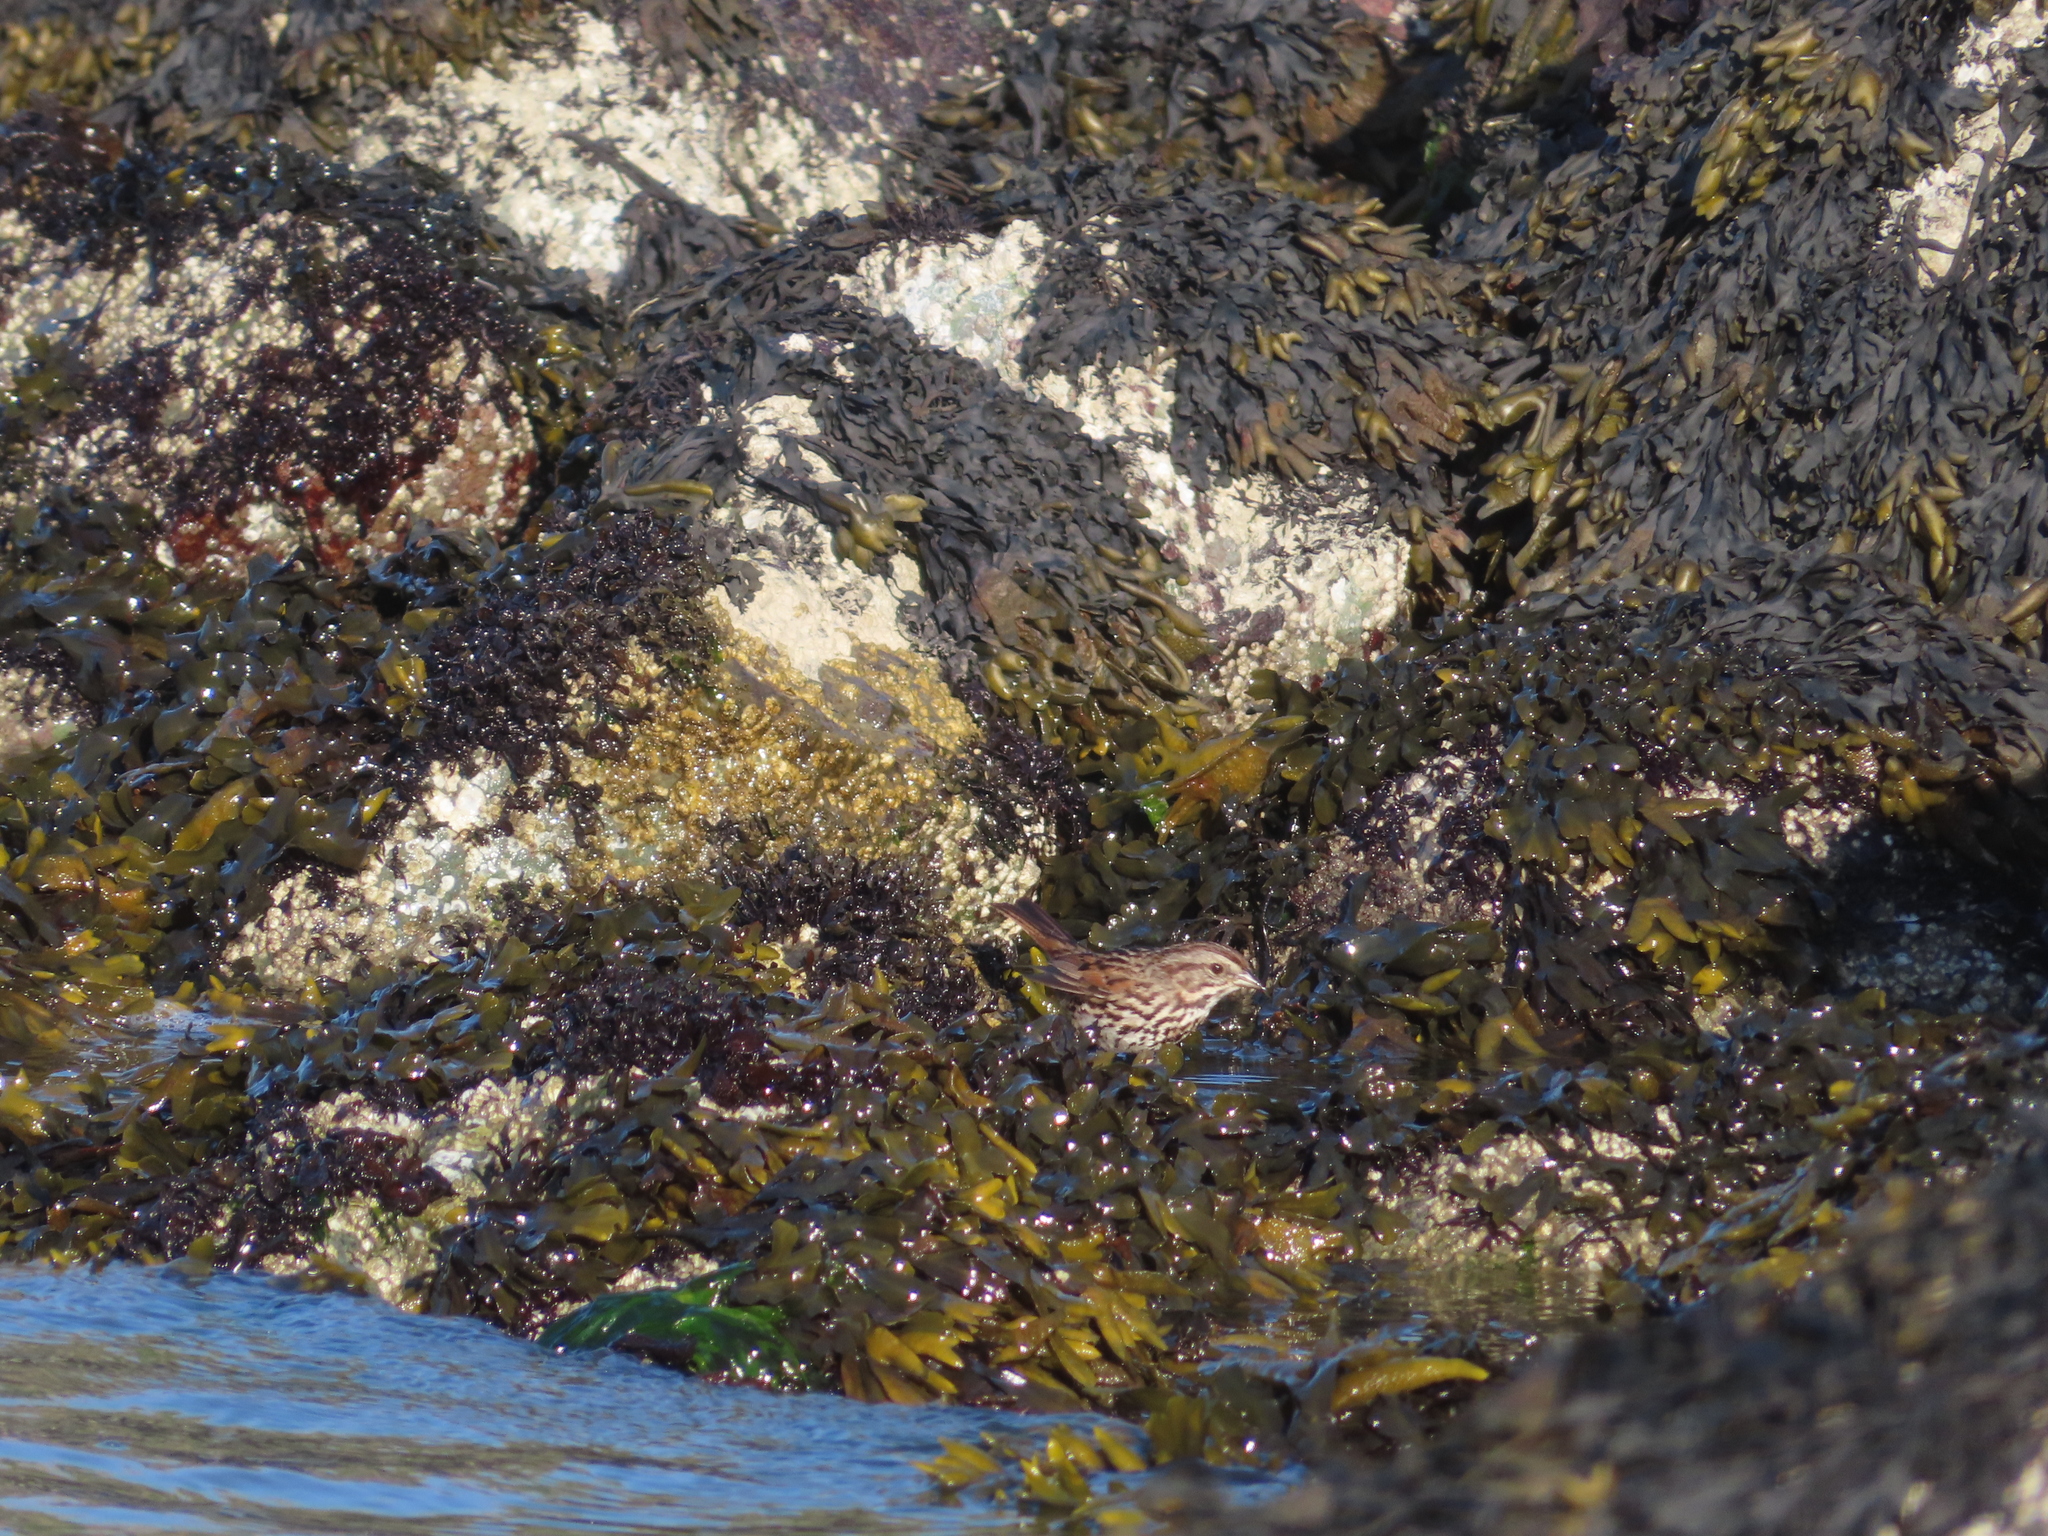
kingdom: Animalia
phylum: Chordata
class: Aves
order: Passeriformes
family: Passerellidae
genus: Melospiza
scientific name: Melospiza melodia
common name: Song sparrow
